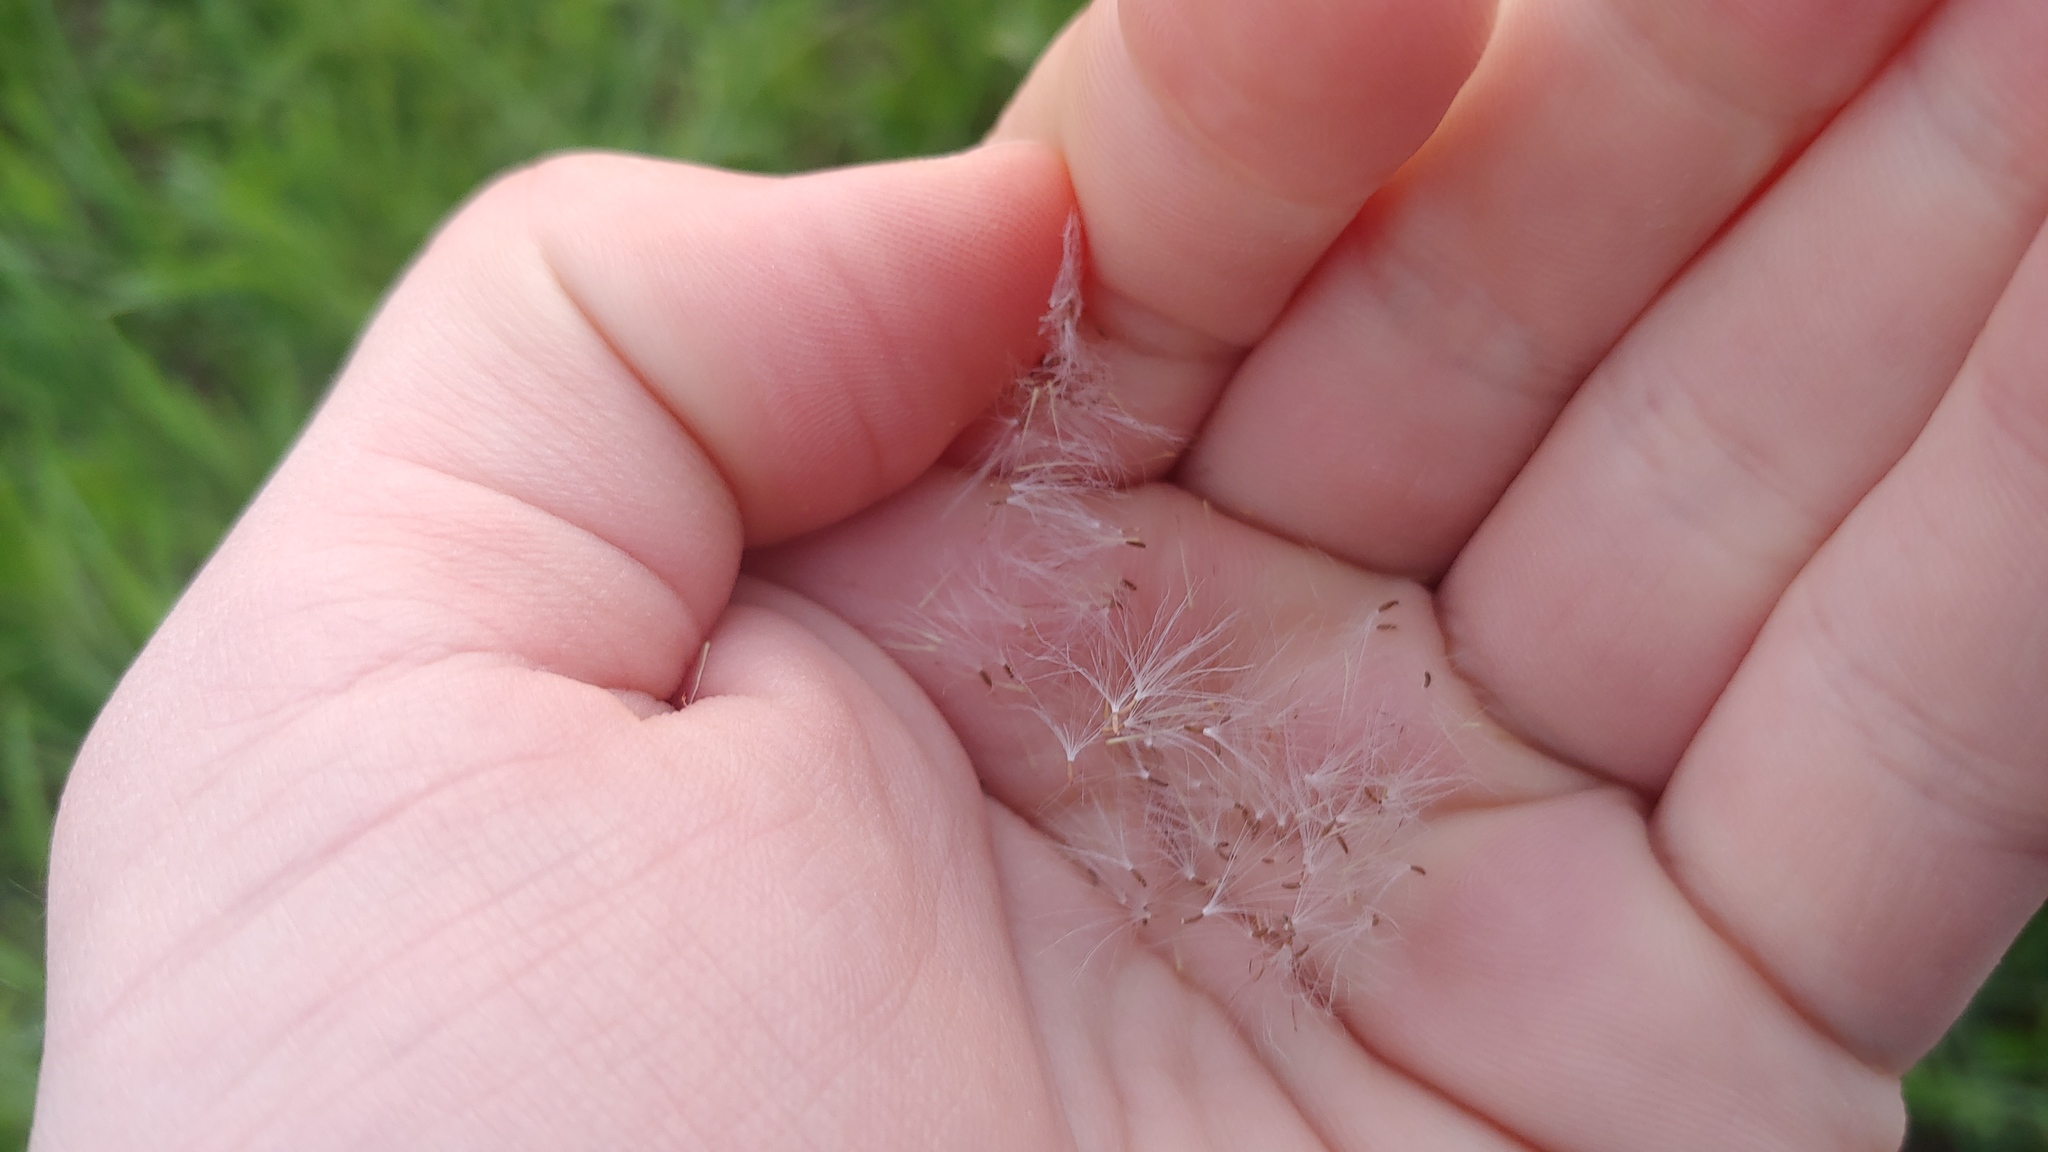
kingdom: Plantae
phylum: Tracheophyta
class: Magnoliopsida
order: Asterales
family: Asteraceae
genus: Antennaria
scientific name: Antennaria neglecta
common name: Field pussytoes
